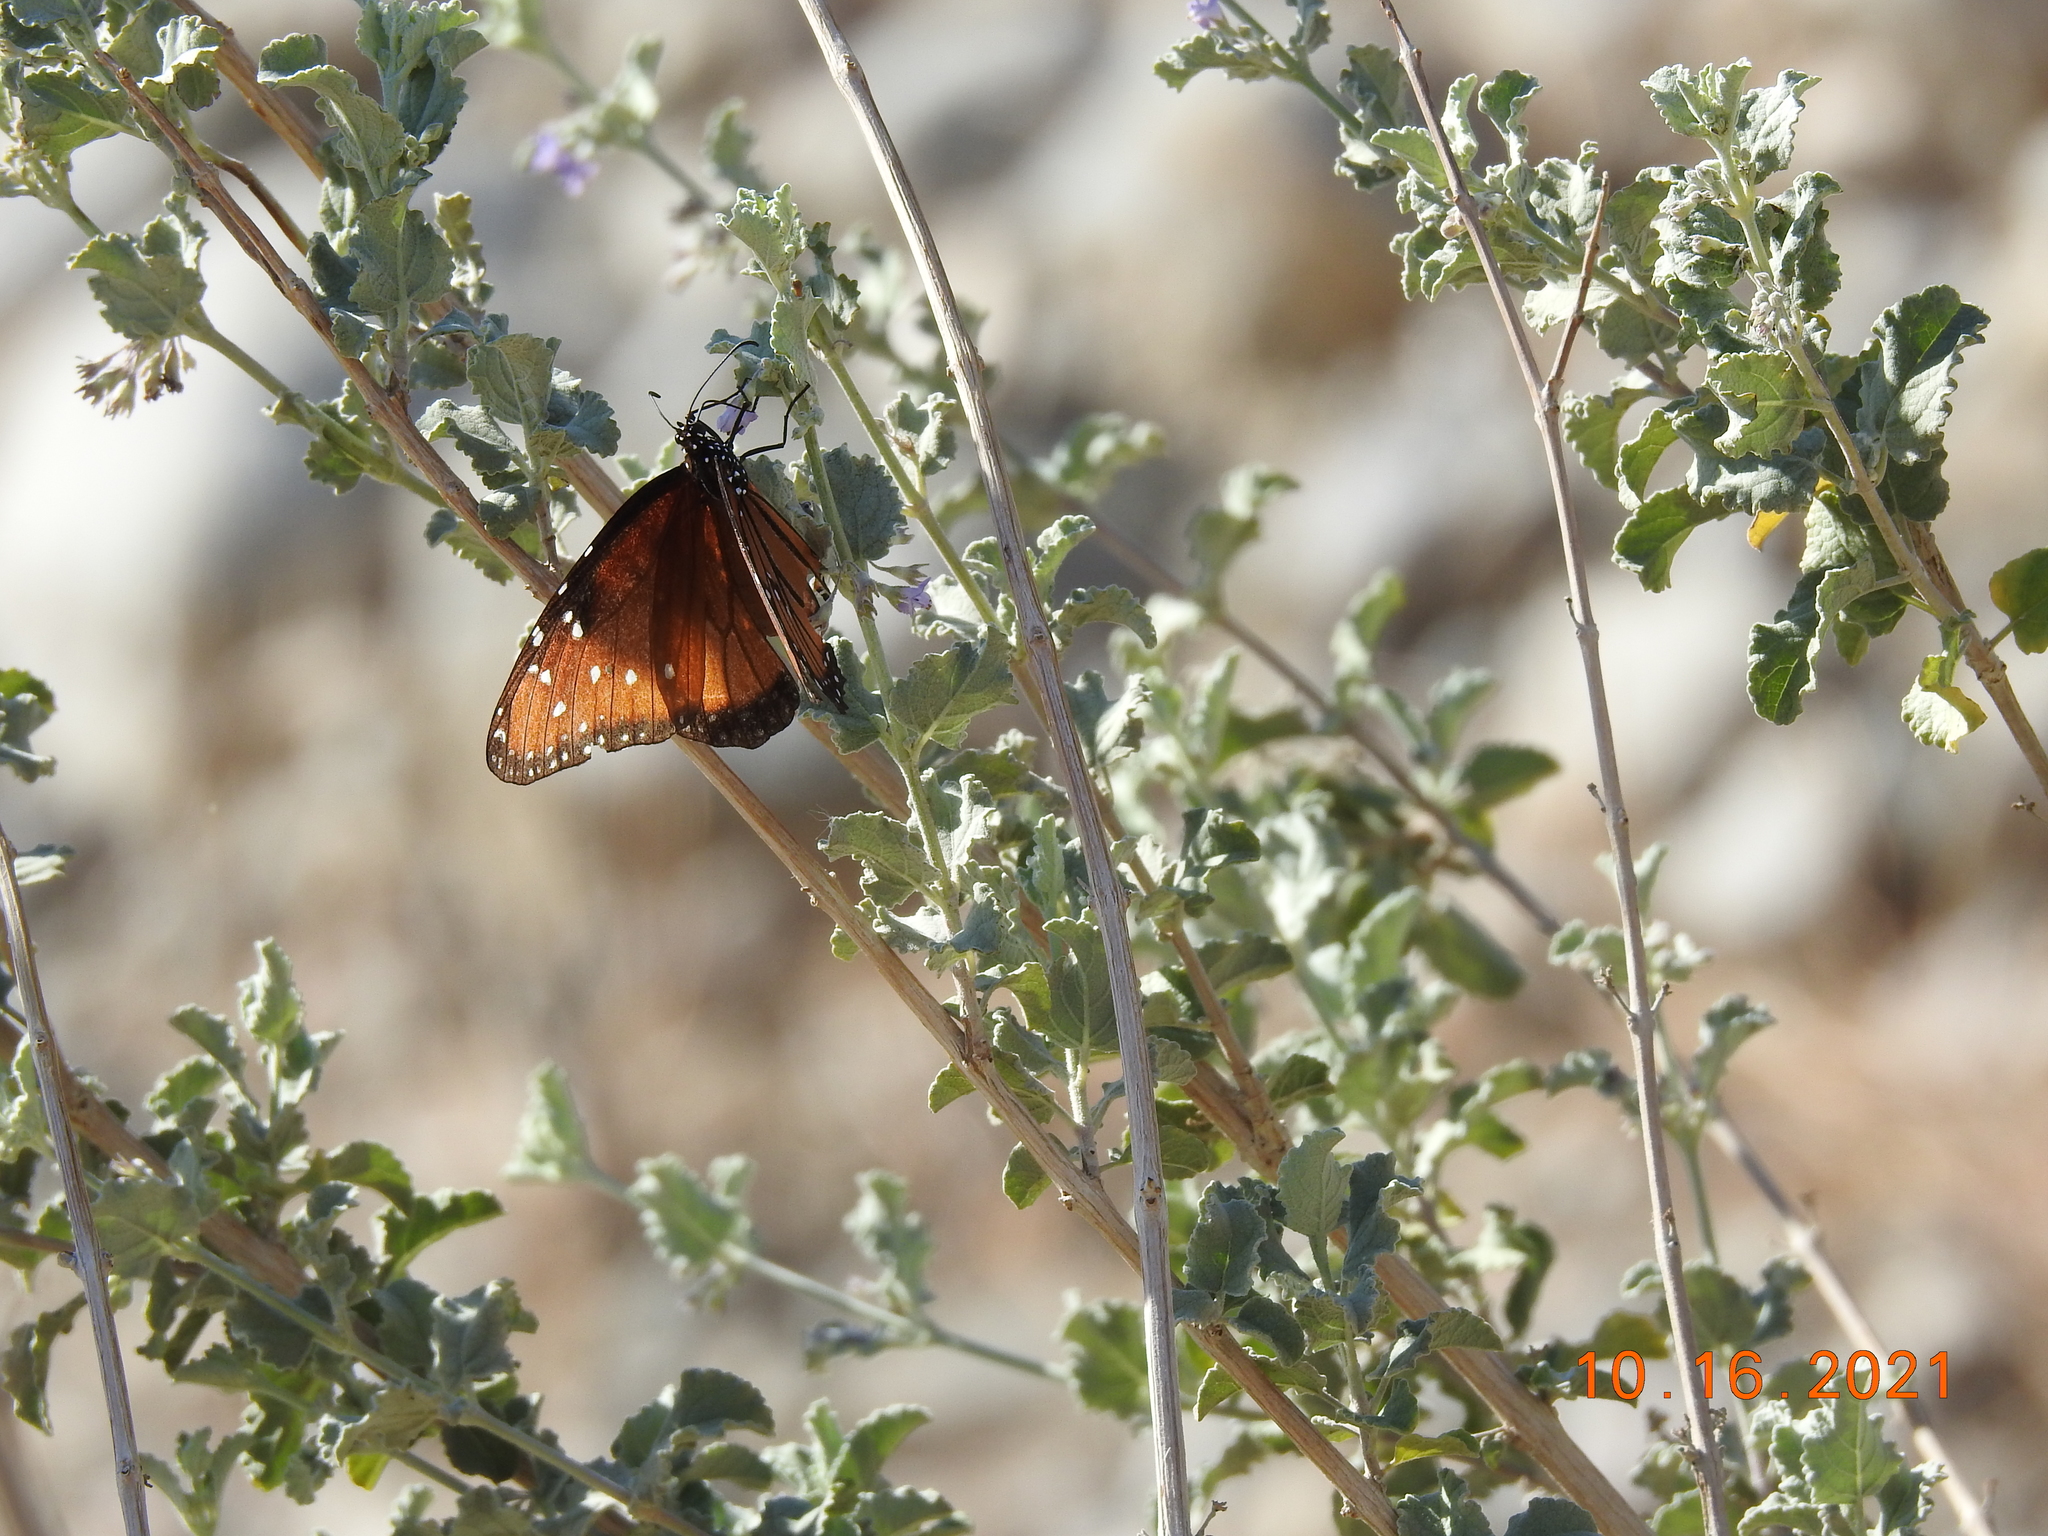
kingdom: Animalia
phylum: Arthropoda
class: Insecta
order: Lepidoptera
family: Nymphalidae
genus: Danaus
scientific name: Danaus gilippus
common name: Queen
